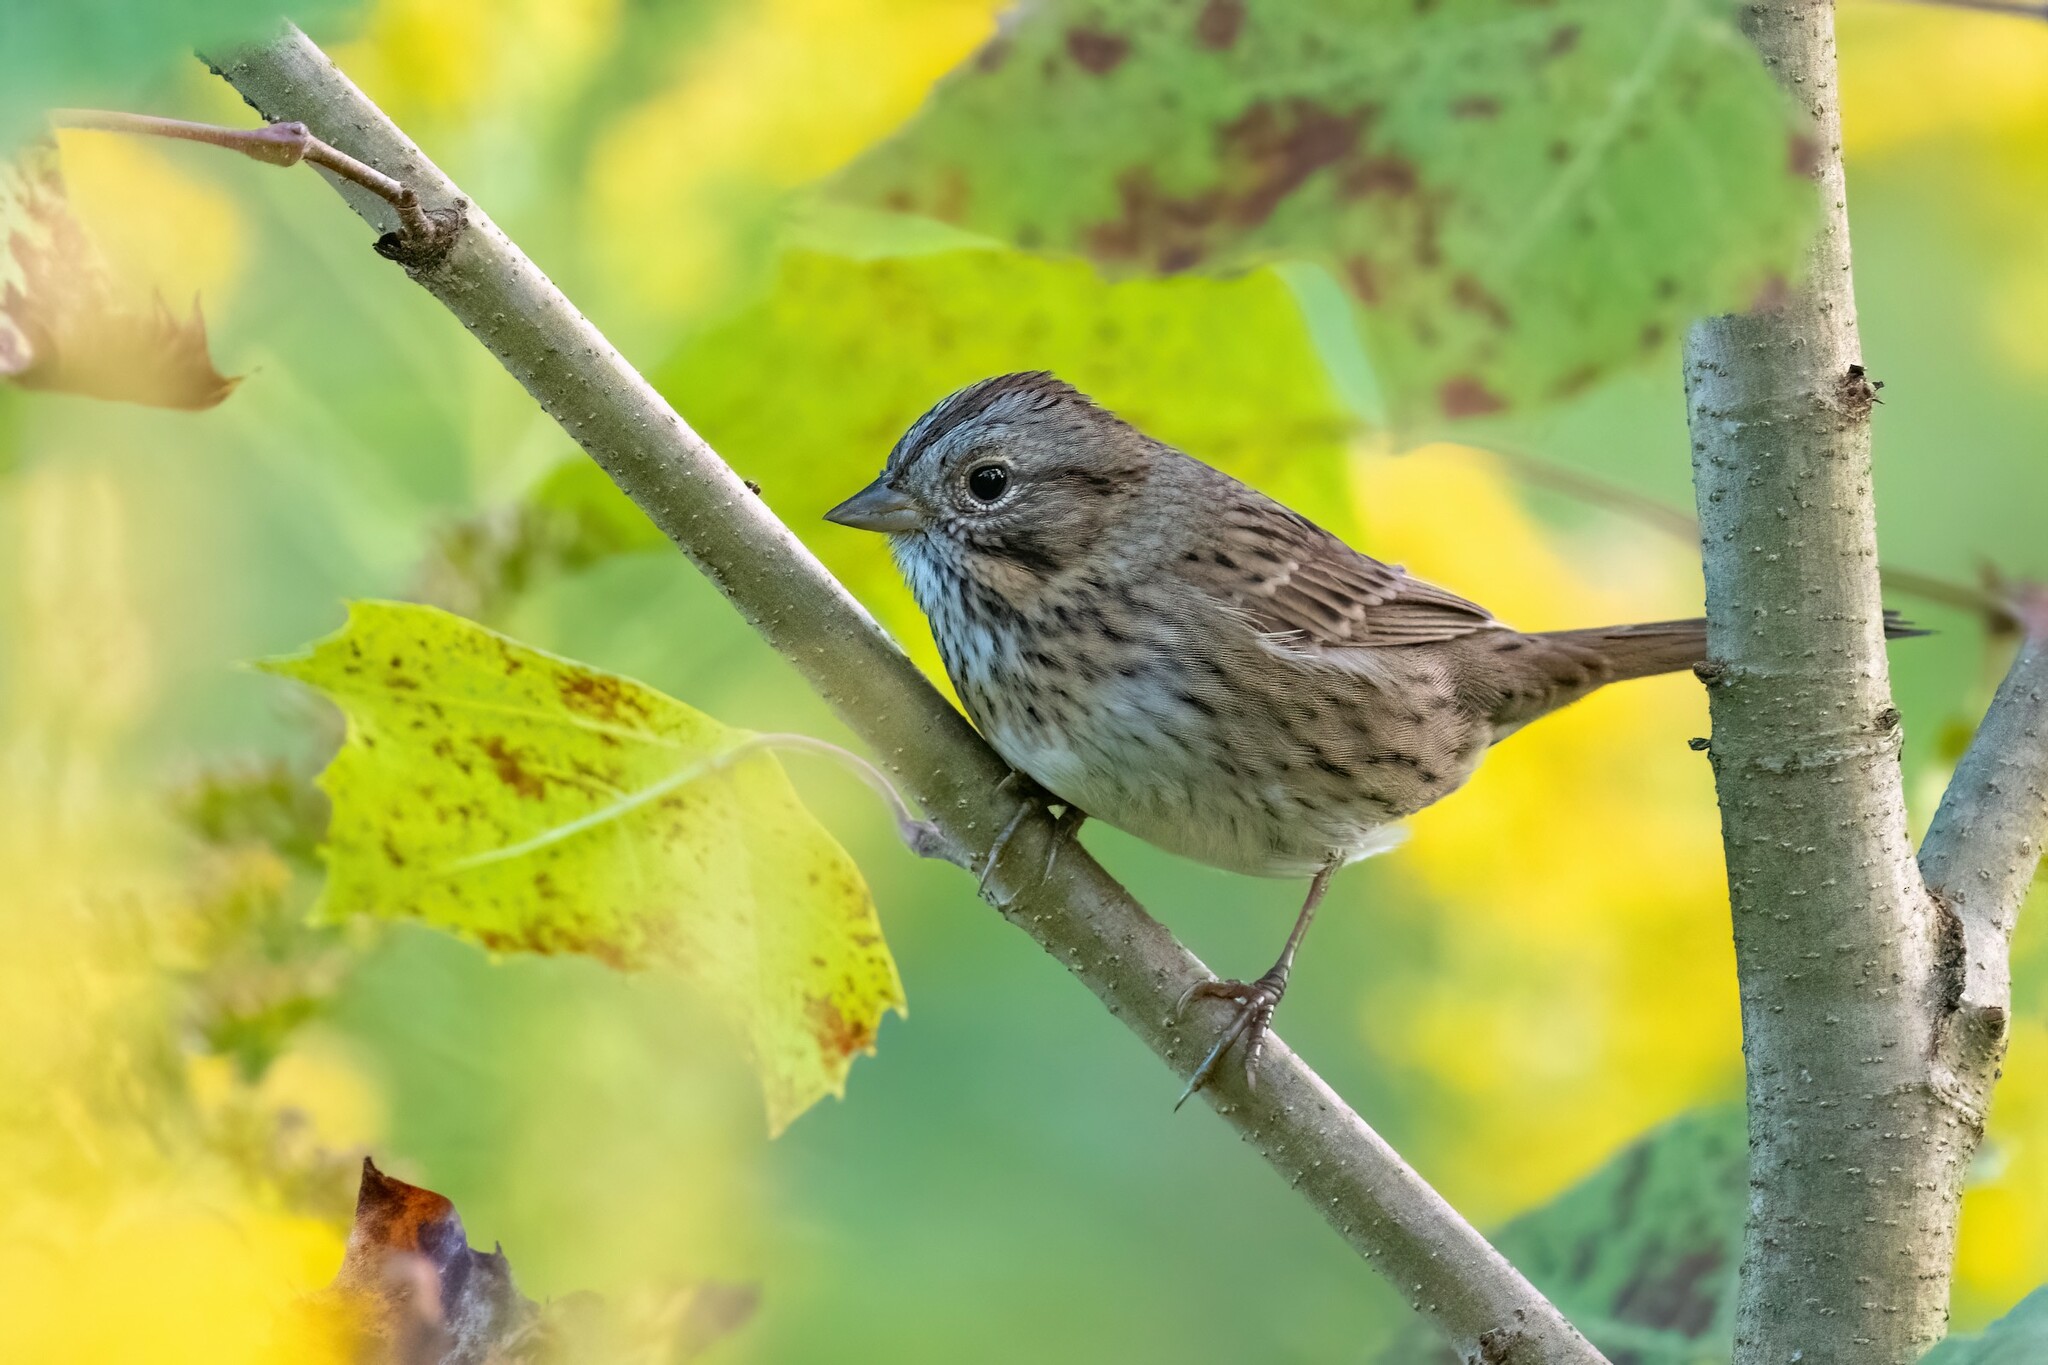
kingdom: Animalia
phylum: Chordata
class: Aves
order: Passeriformes
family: Passerellidae
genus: Melospiza
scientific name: Melospiza lincolnii
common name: Lincoln's sparrow
